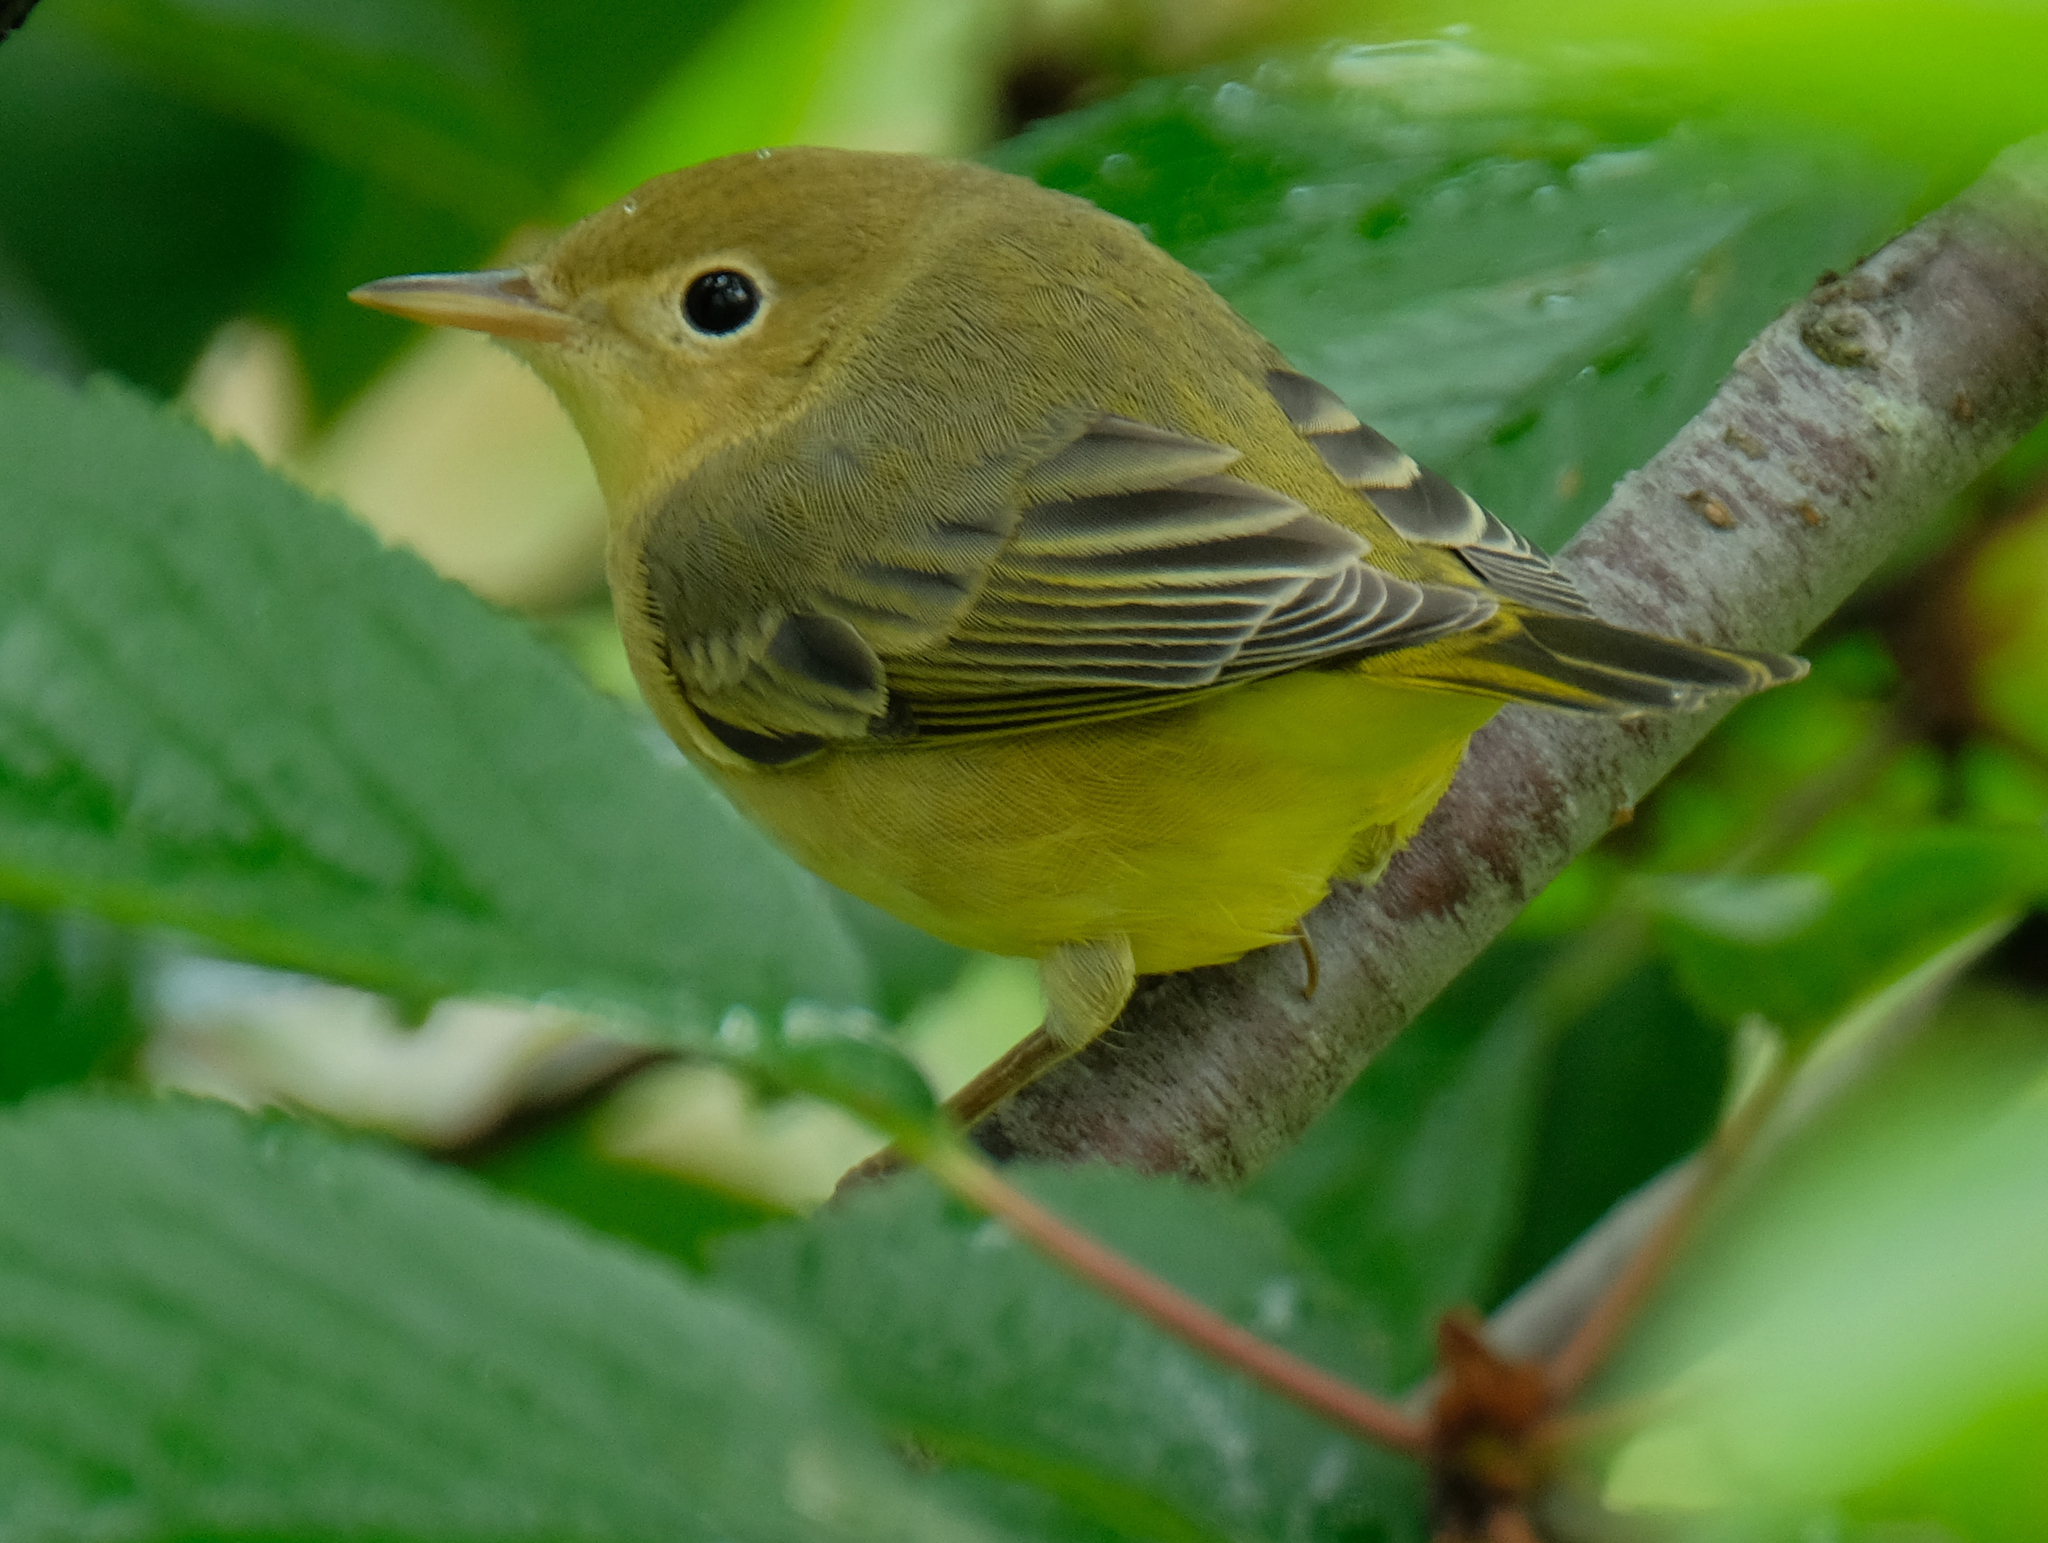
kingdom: Animalia
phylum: Chordata
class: Aves
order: Passeriformes
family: Parulidae
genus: Setophaga
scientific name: Setophaga petechia
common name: Yellow warbler
